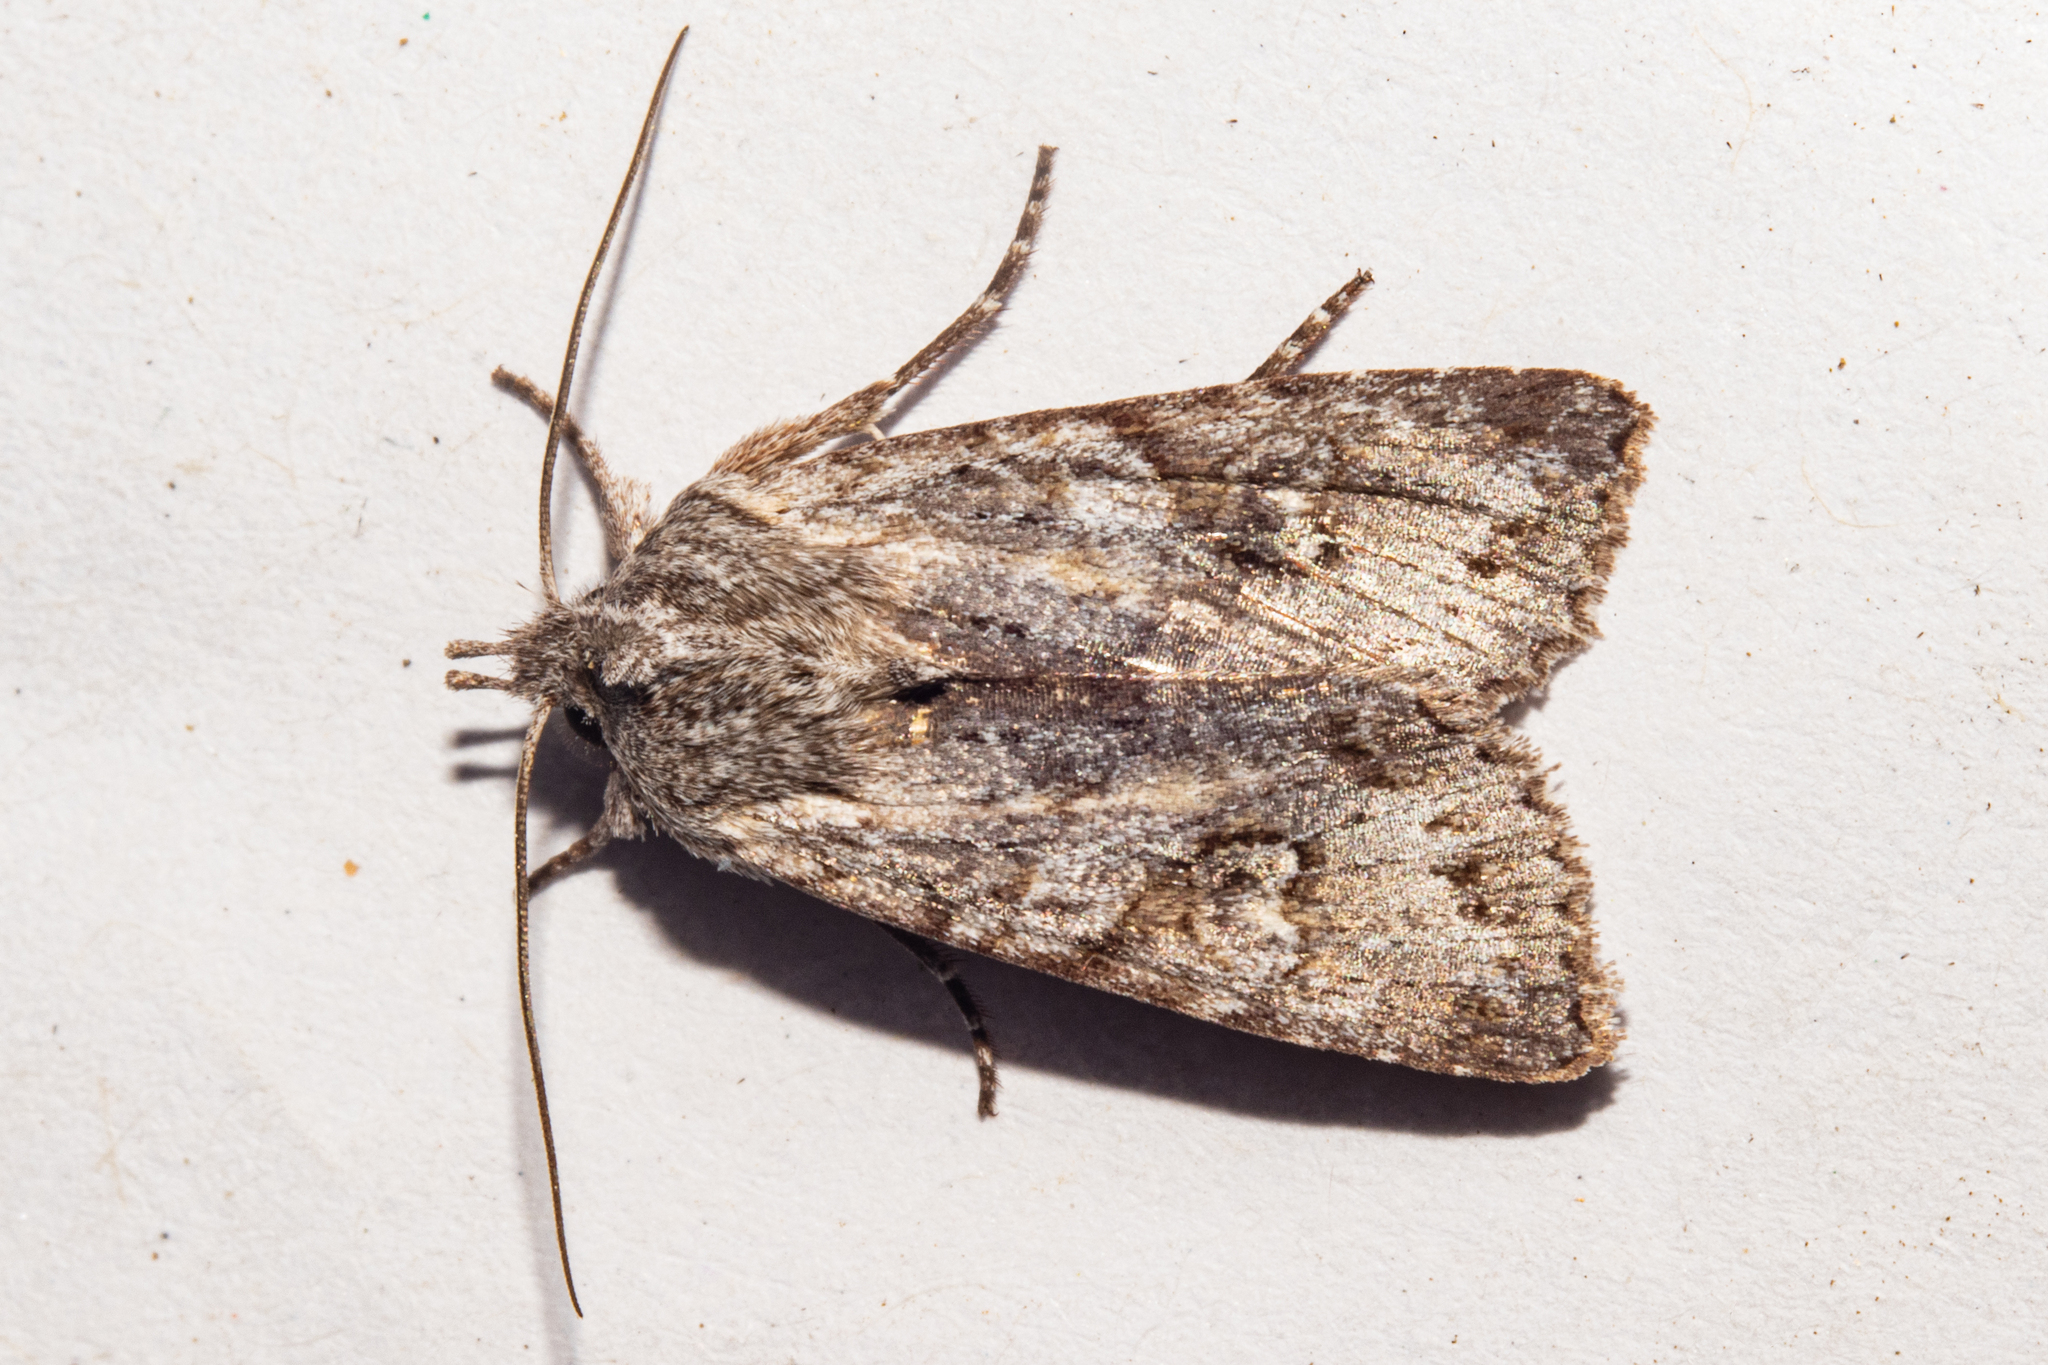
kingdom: Animalia
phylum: Arthropoda
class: Insecta
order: Lepidoptera
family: Noctuidae
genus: Physetica
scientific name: Physetica longstaffii
